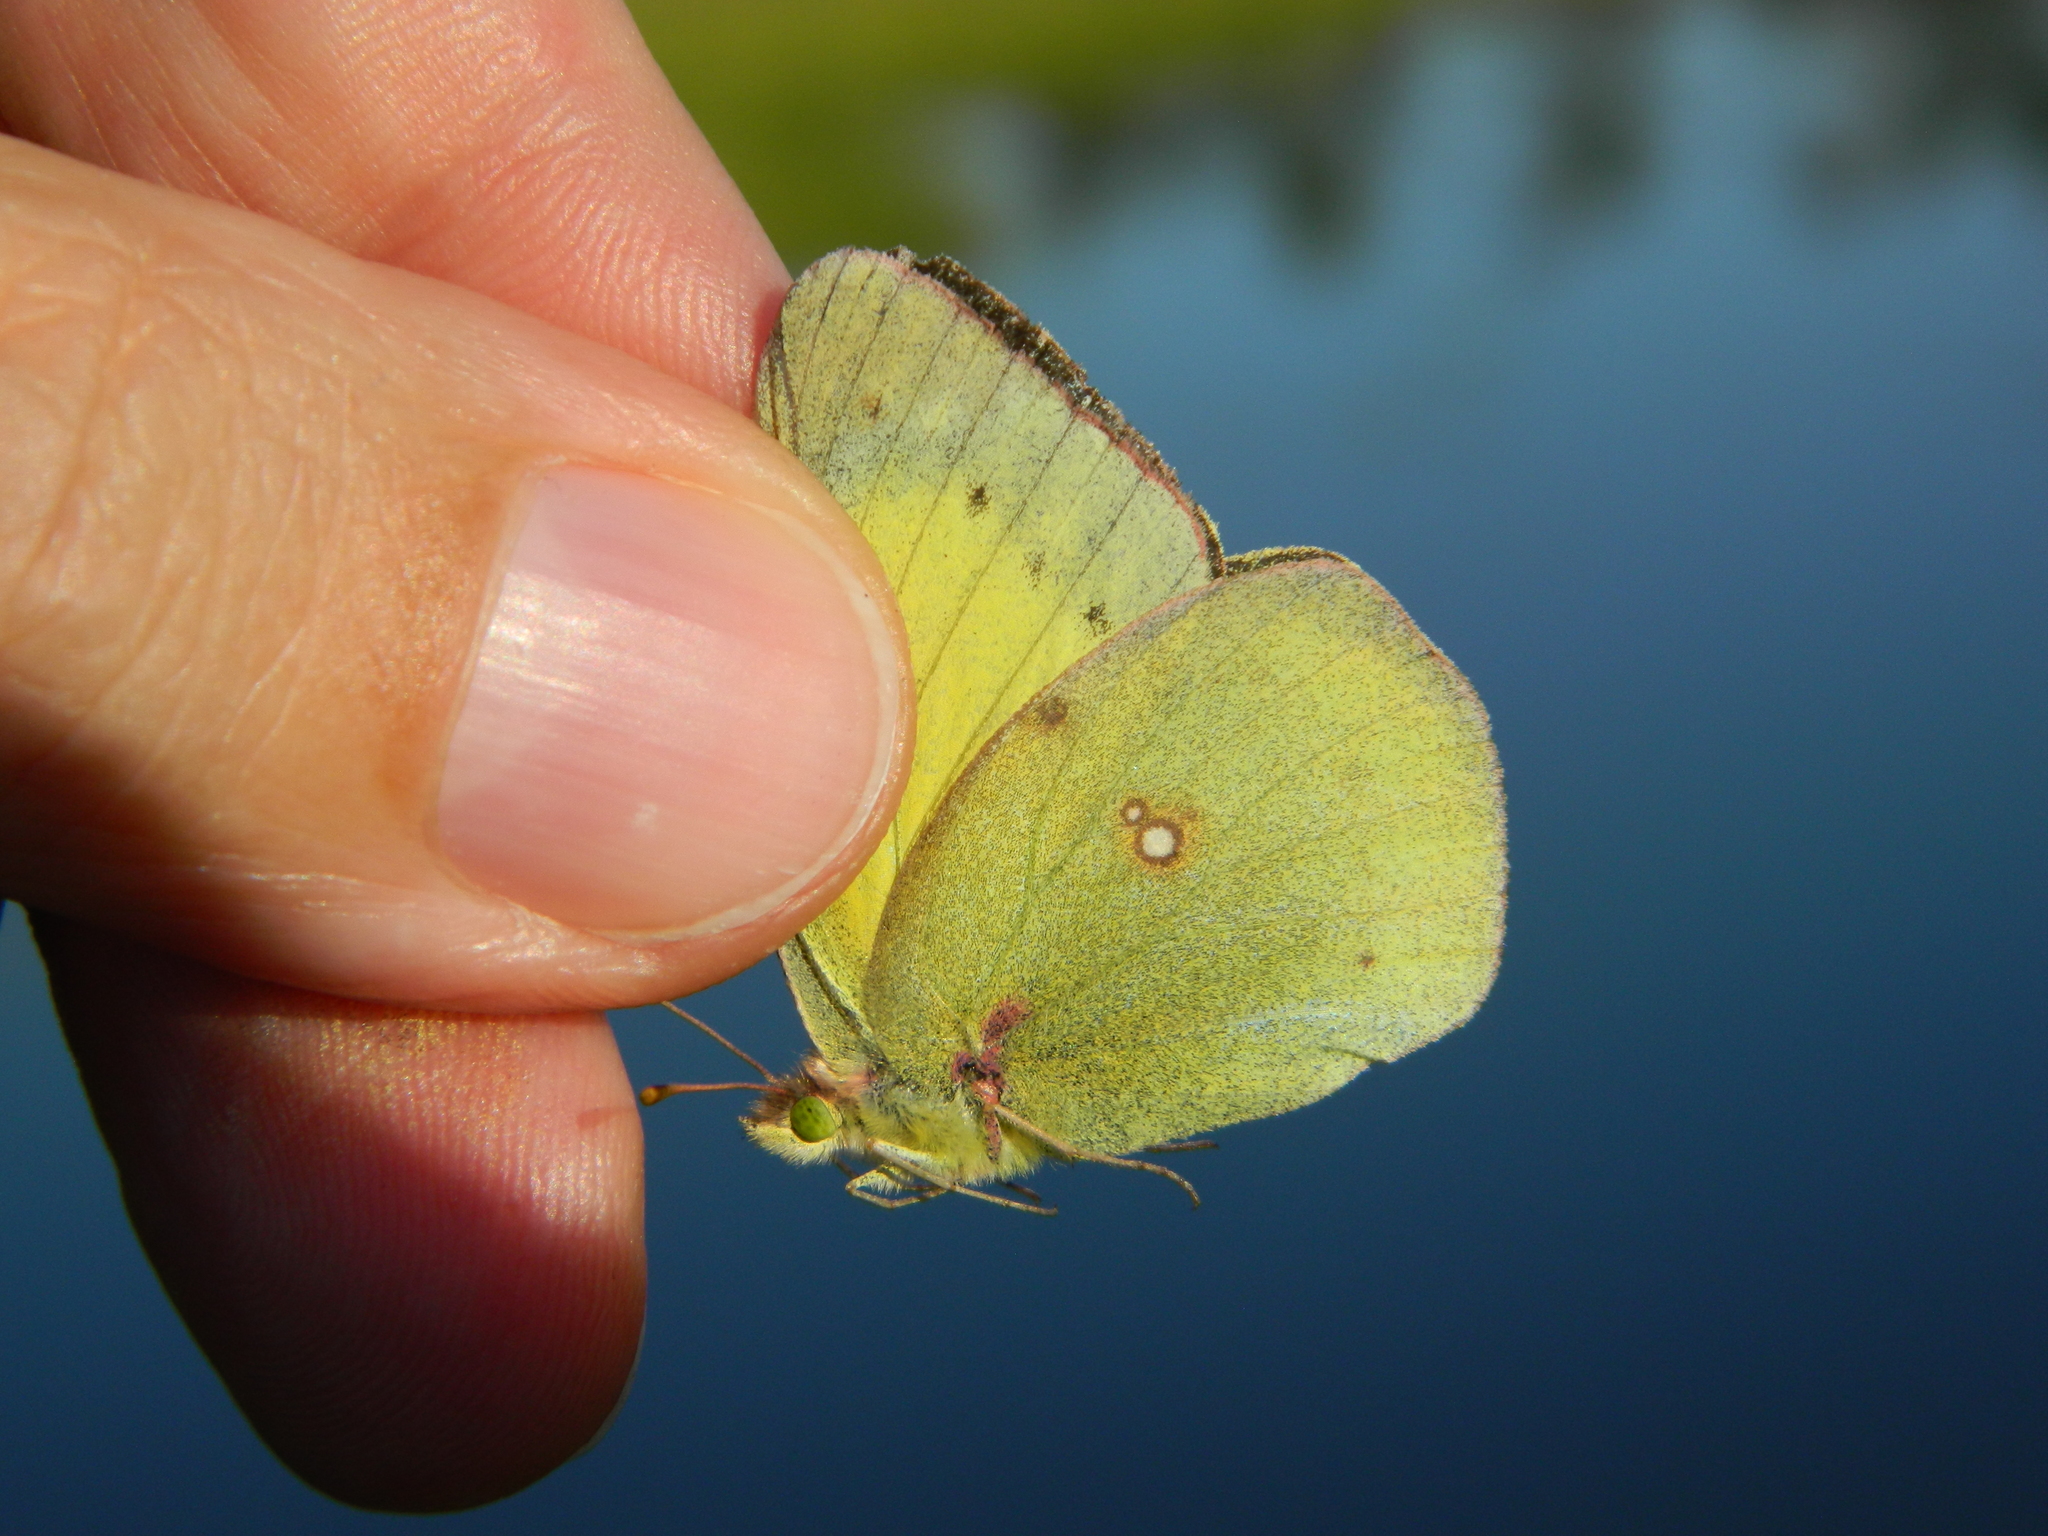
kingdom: Animalia
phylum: Arthropoda
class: Insecta
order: Lepidoptera
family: Pieridae
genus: Colias
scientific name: Colias philodice
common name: Clouded sulphur
